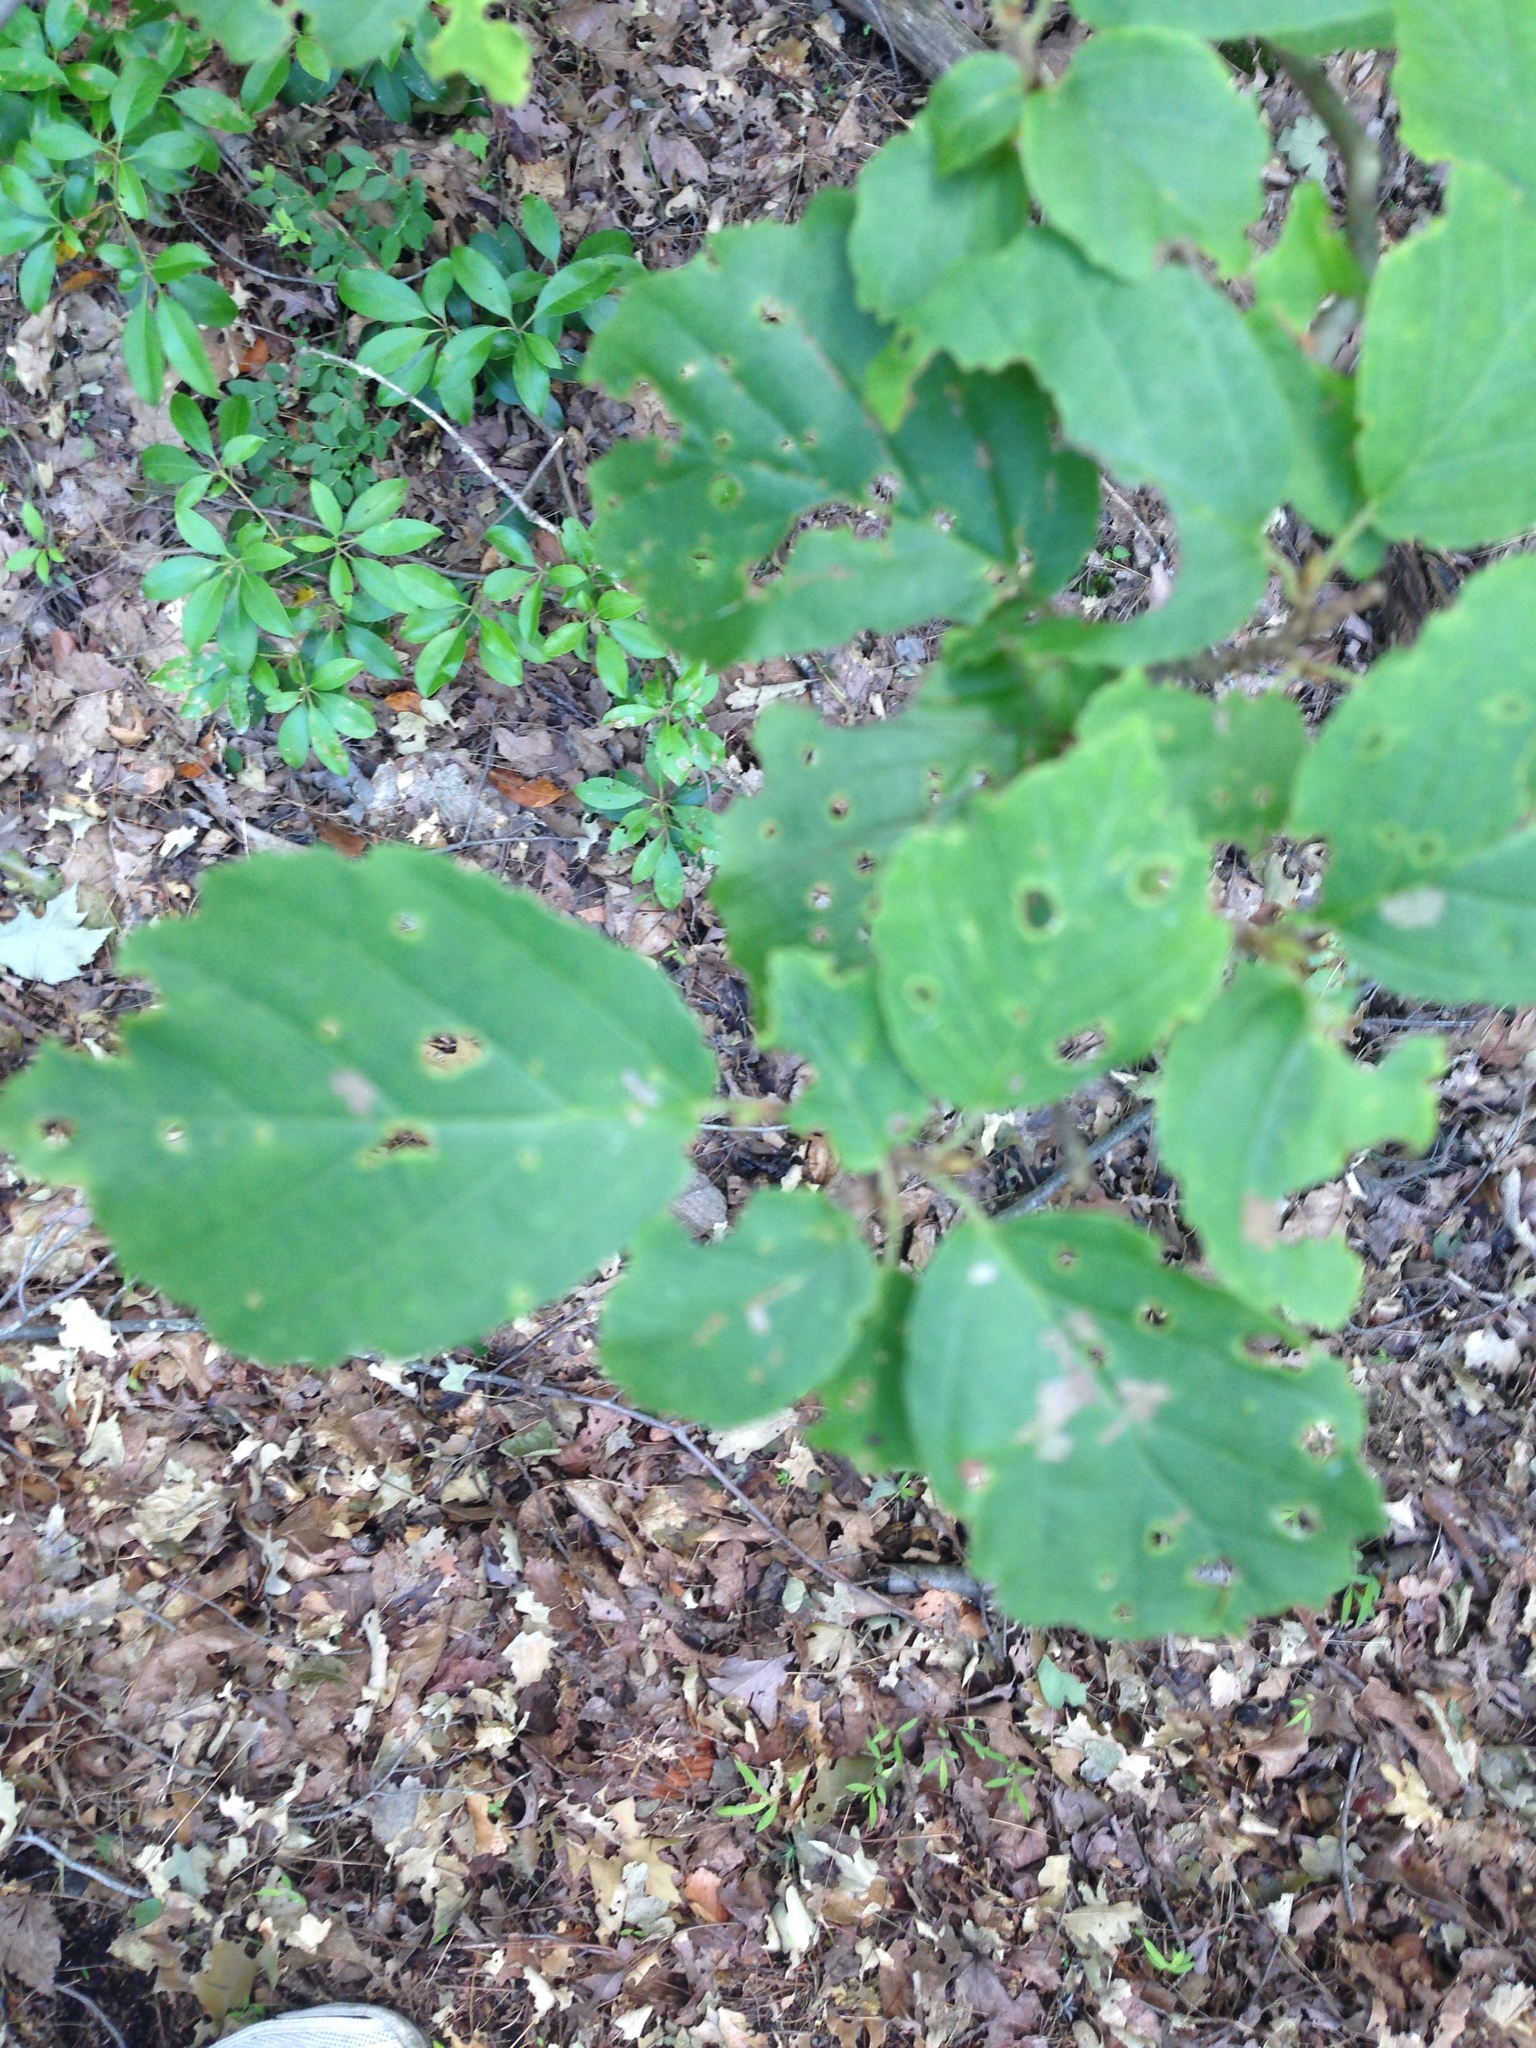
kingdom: Plantae
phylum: Tracheophyta
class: Magnoliopsida
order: Saxifragales
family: Hamamelidaceae
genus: Hamamelis
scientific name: Hamamelis virginiana
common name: Witch-hazel
